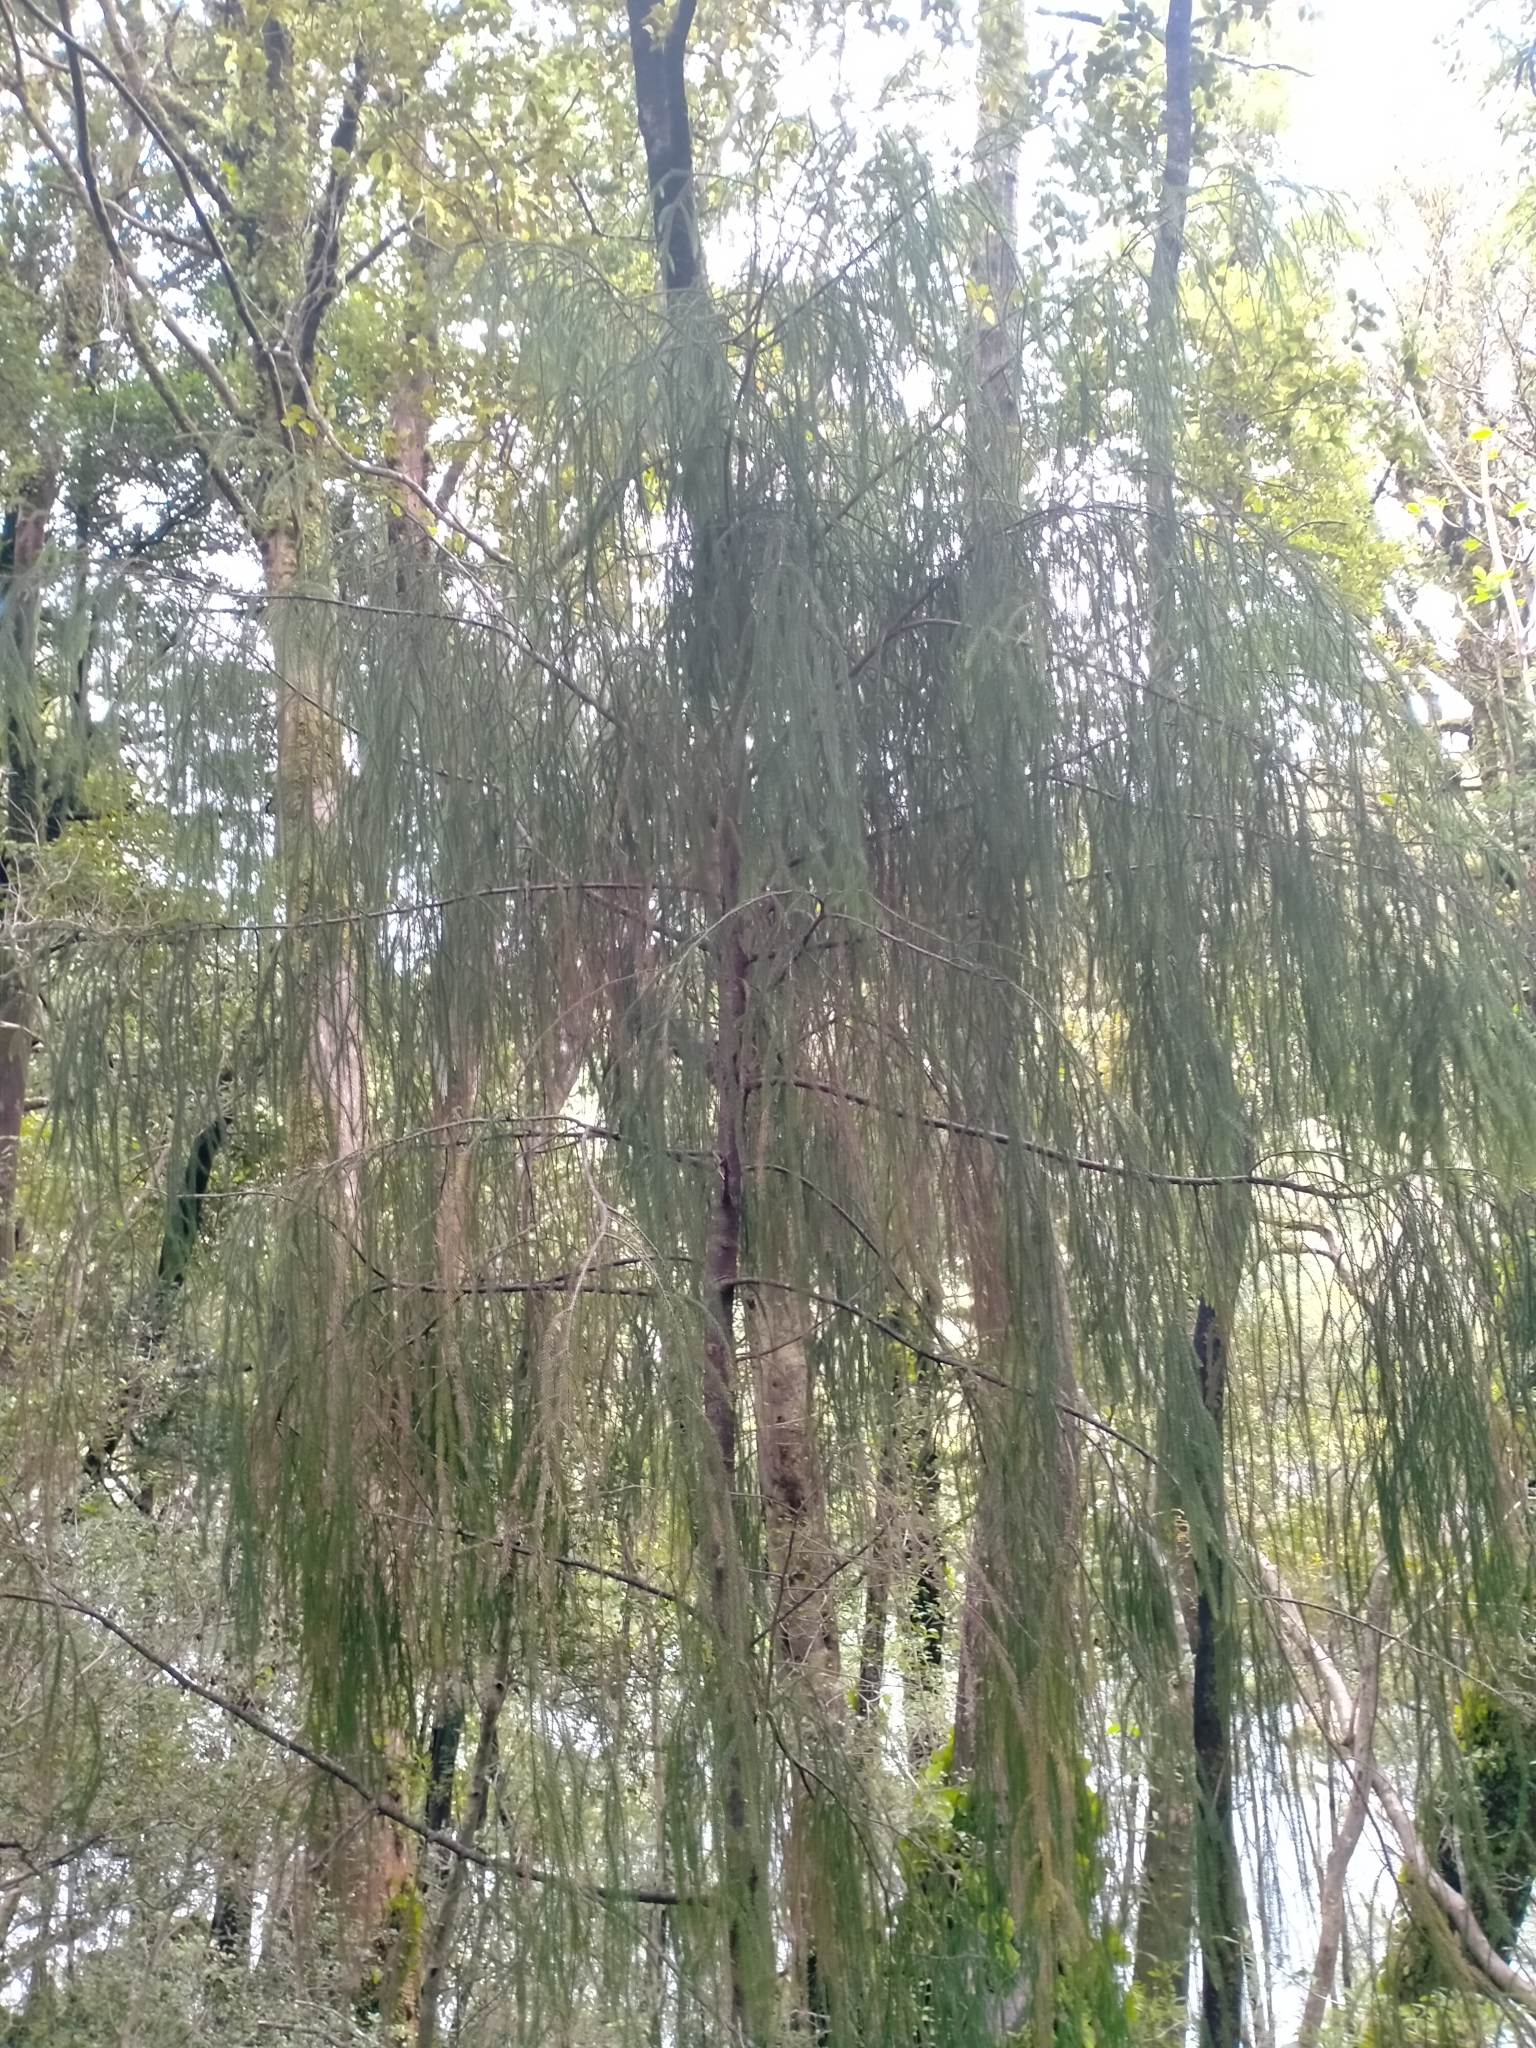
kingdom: Plantae
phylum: Tracheophyta
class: Pinopsida
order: Pinales
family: Podocarpaceae
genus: Dacrydium
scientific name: Dacrydium cupressinum
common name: Red pine
